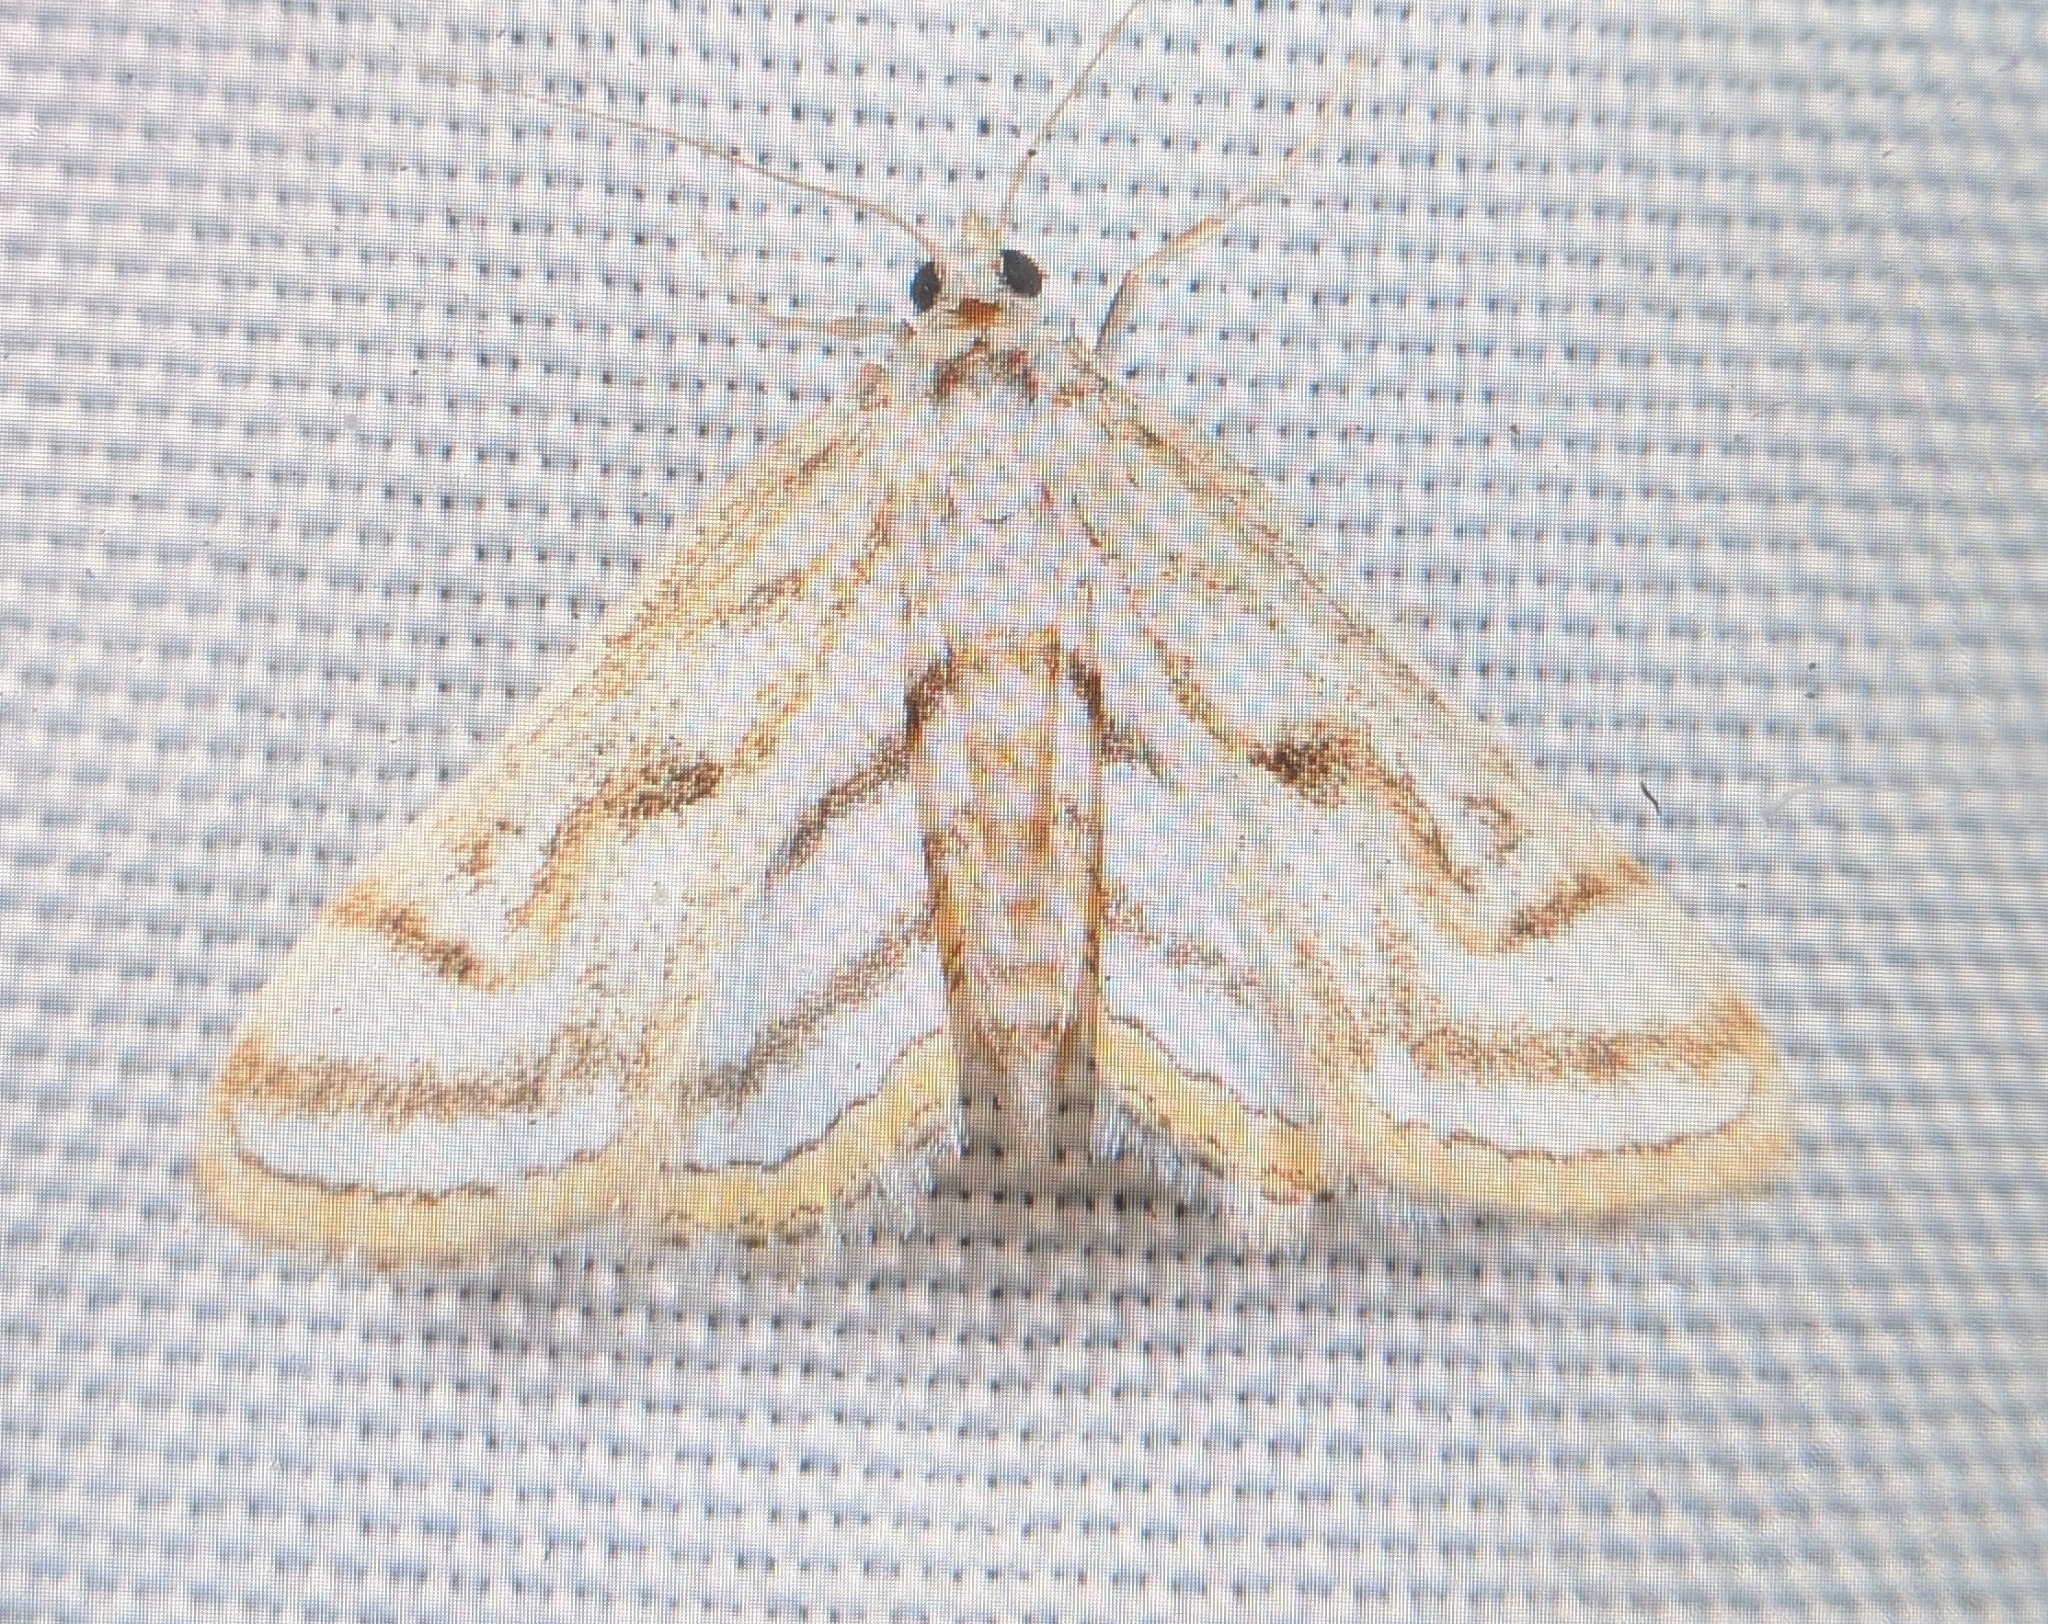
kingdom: Animalia
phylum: Arthropoda
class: Insecta
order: Lepidoptera
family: Crambidae
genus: Parapoynx
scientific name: Parapoynx badiusalis
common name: Chestnut-marked pondweed moth
